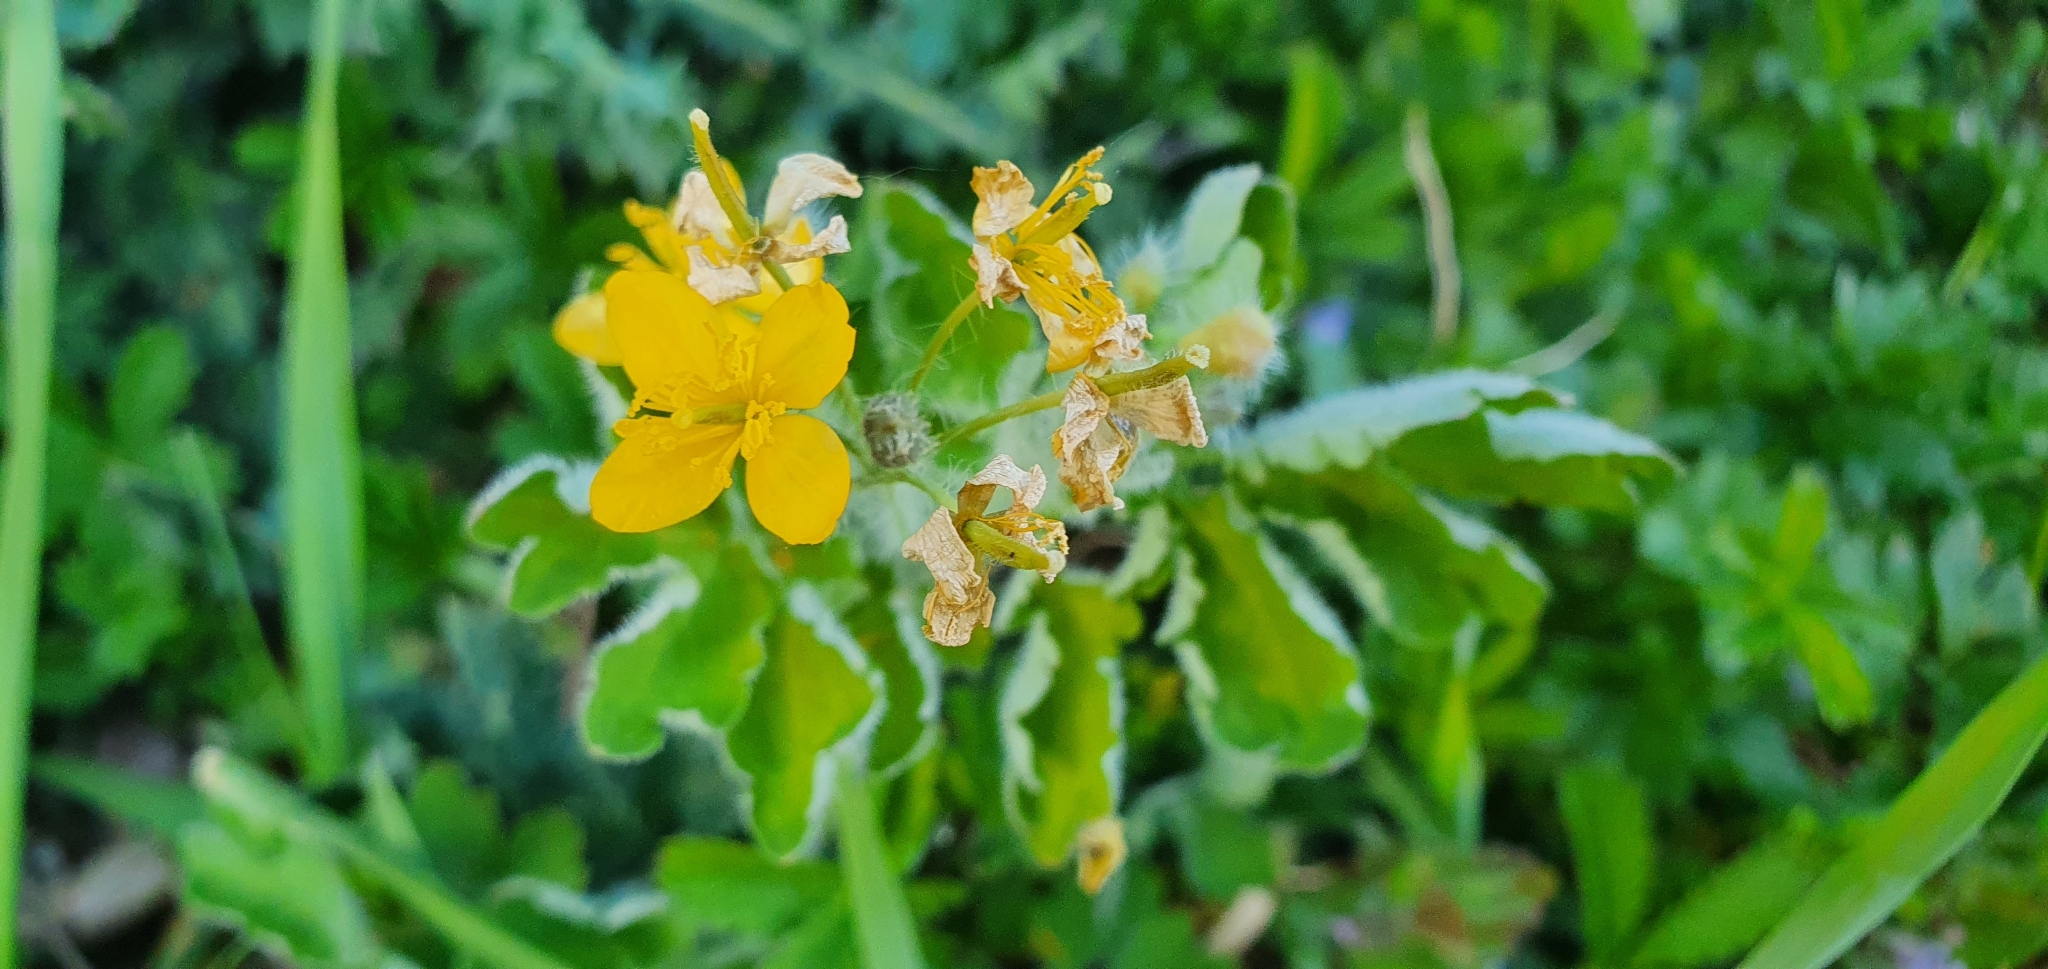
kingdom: Plantae
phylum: Tracheophyta
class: Magnoliopsida
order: Ranunculales
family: Papaveraceae
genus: Chelidonium
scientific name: Chelidonium majus
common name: Greater celandine
